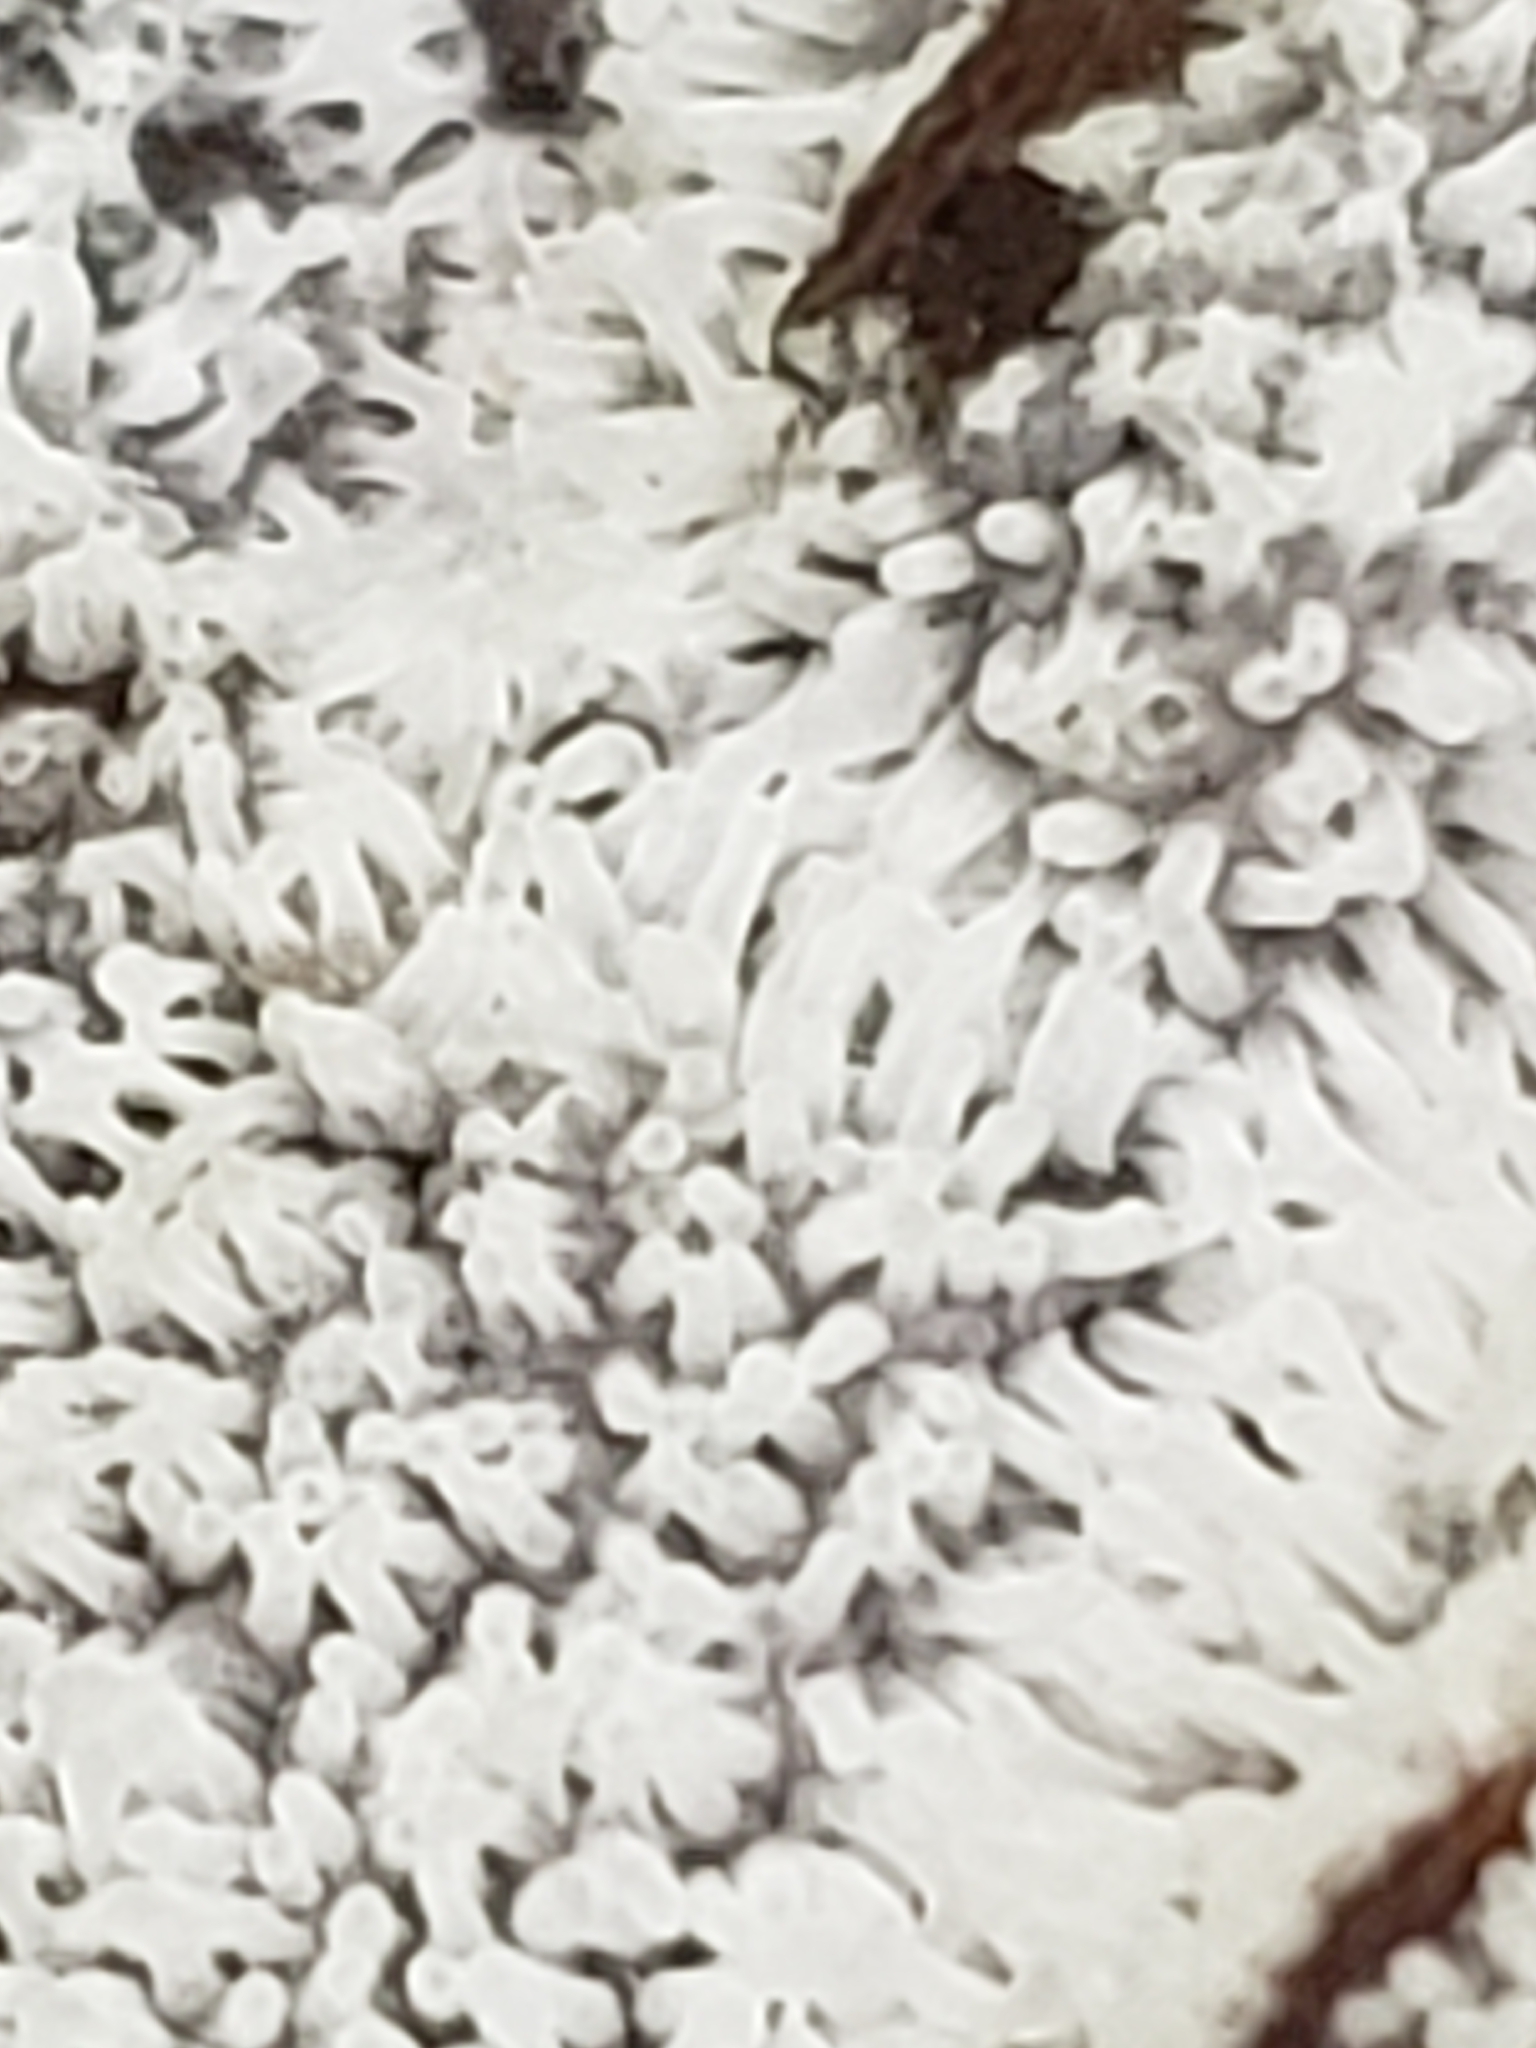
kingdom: Protozoa
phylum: Mycetozoa
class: Protosteliomycetes
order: Ceratiomyxales
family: Ceratiomyxaceae
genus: Ceratiomyxa
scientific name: Ceratiomyxa fruticulosa
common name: Honeycomb coral slime mold
